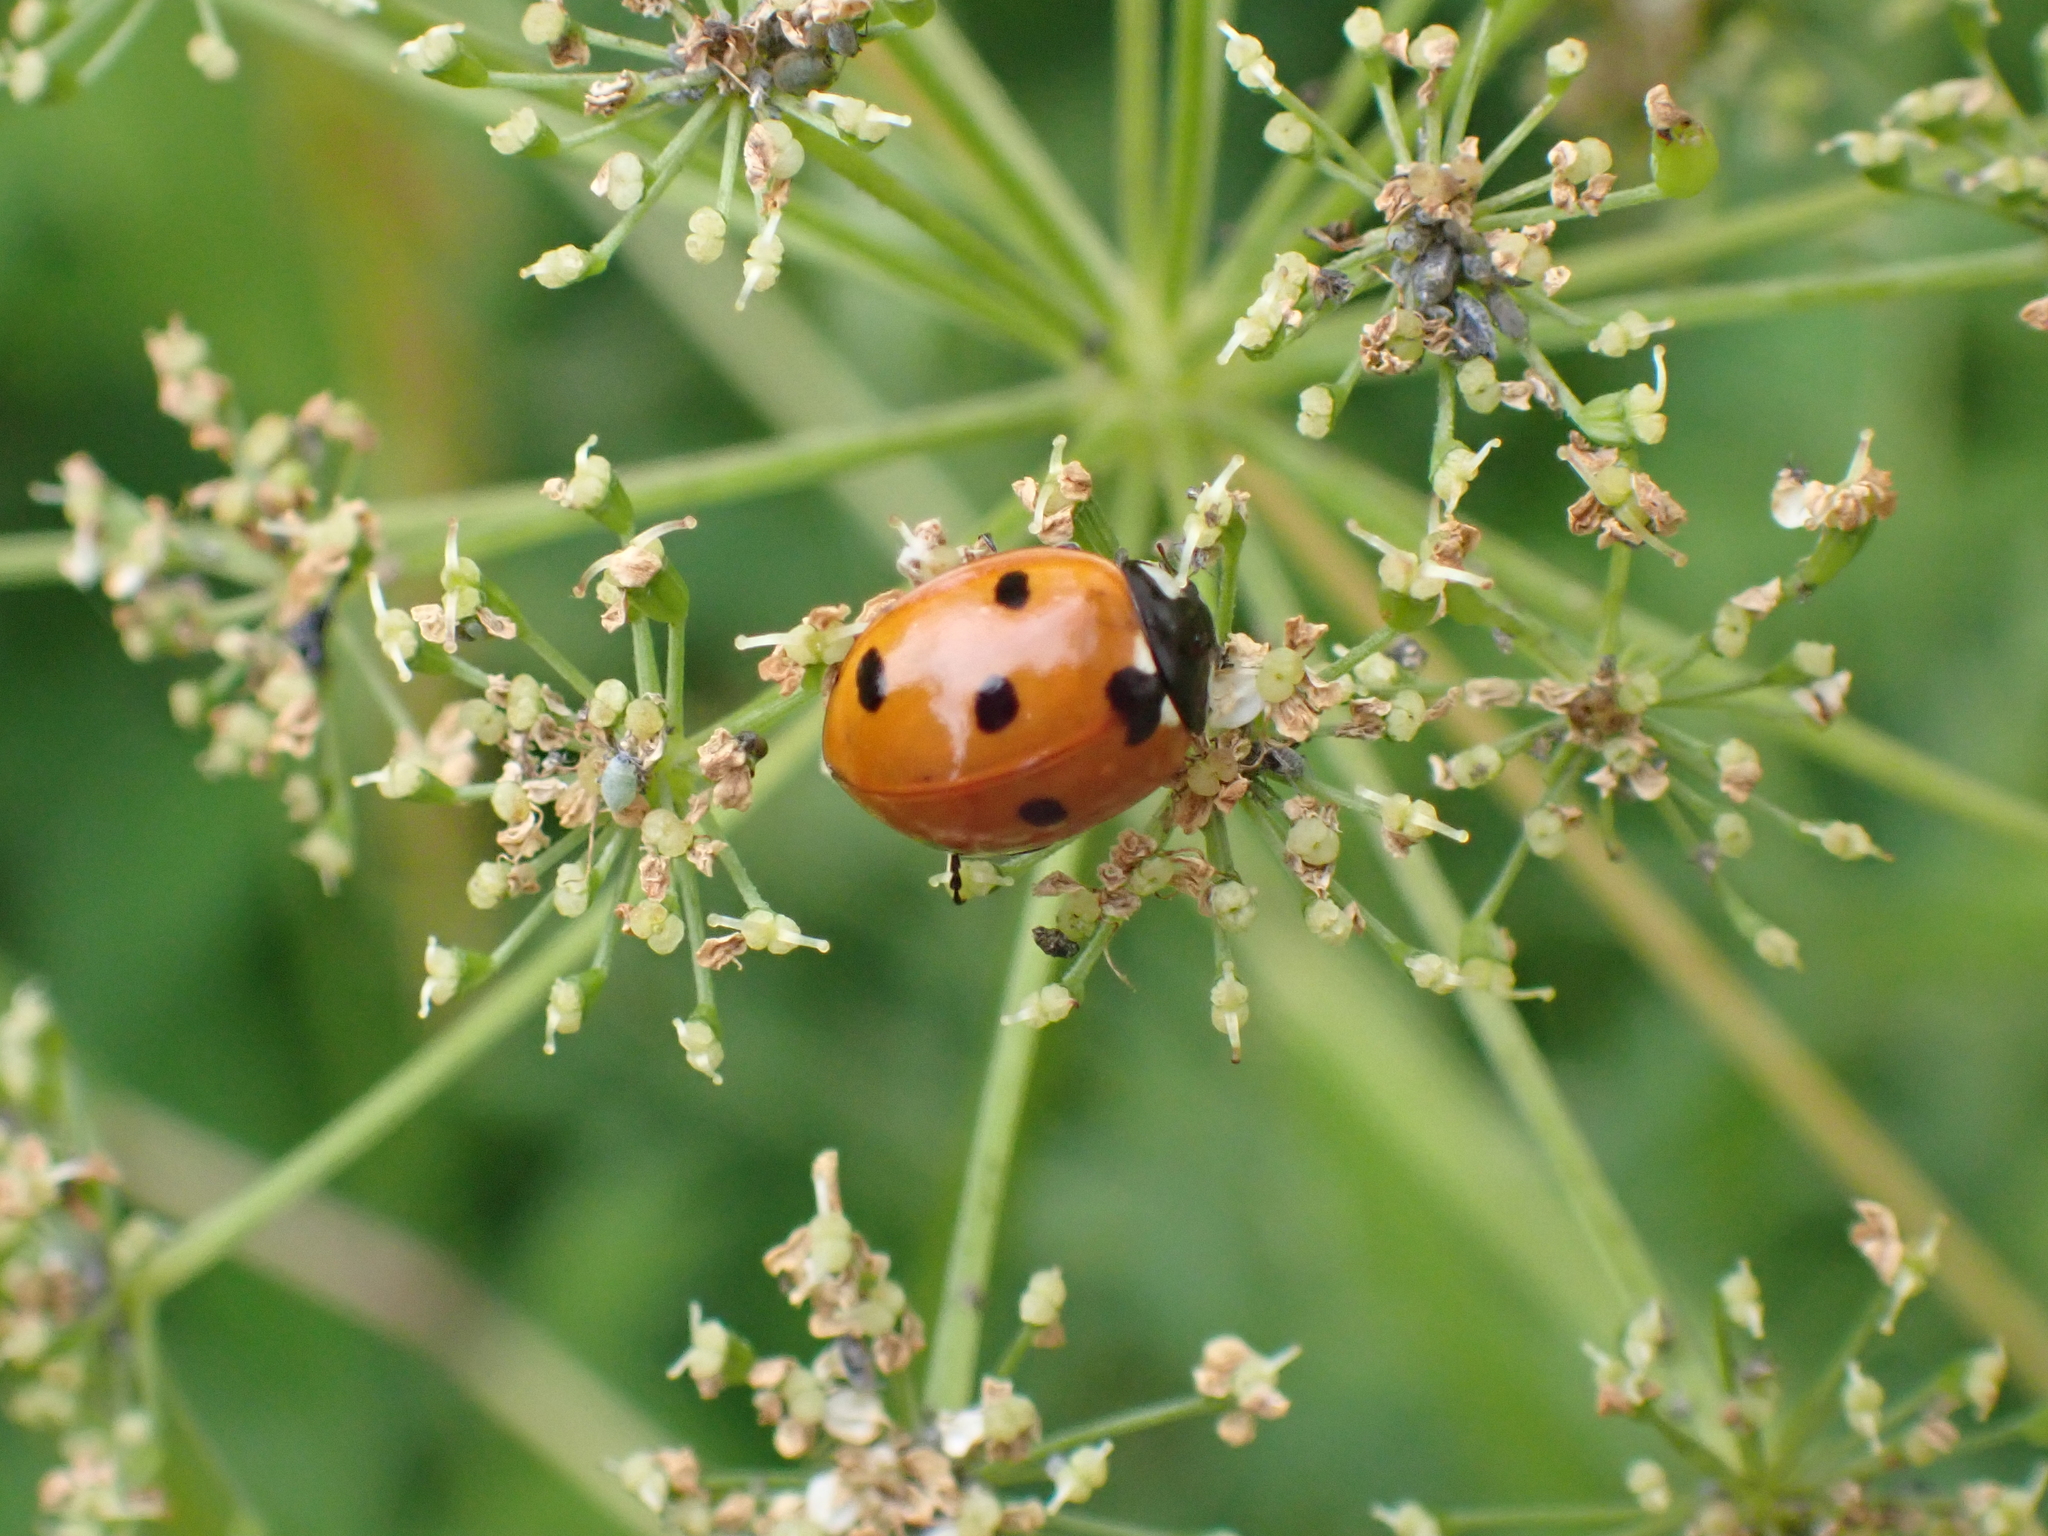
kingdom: Animalia
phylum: Arthropoda
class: Insecta
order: Coleoptera
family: Coccinellidae
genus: Coccinella
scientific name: Coccinella septempunctata
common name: Sevenspotted lady beetle
